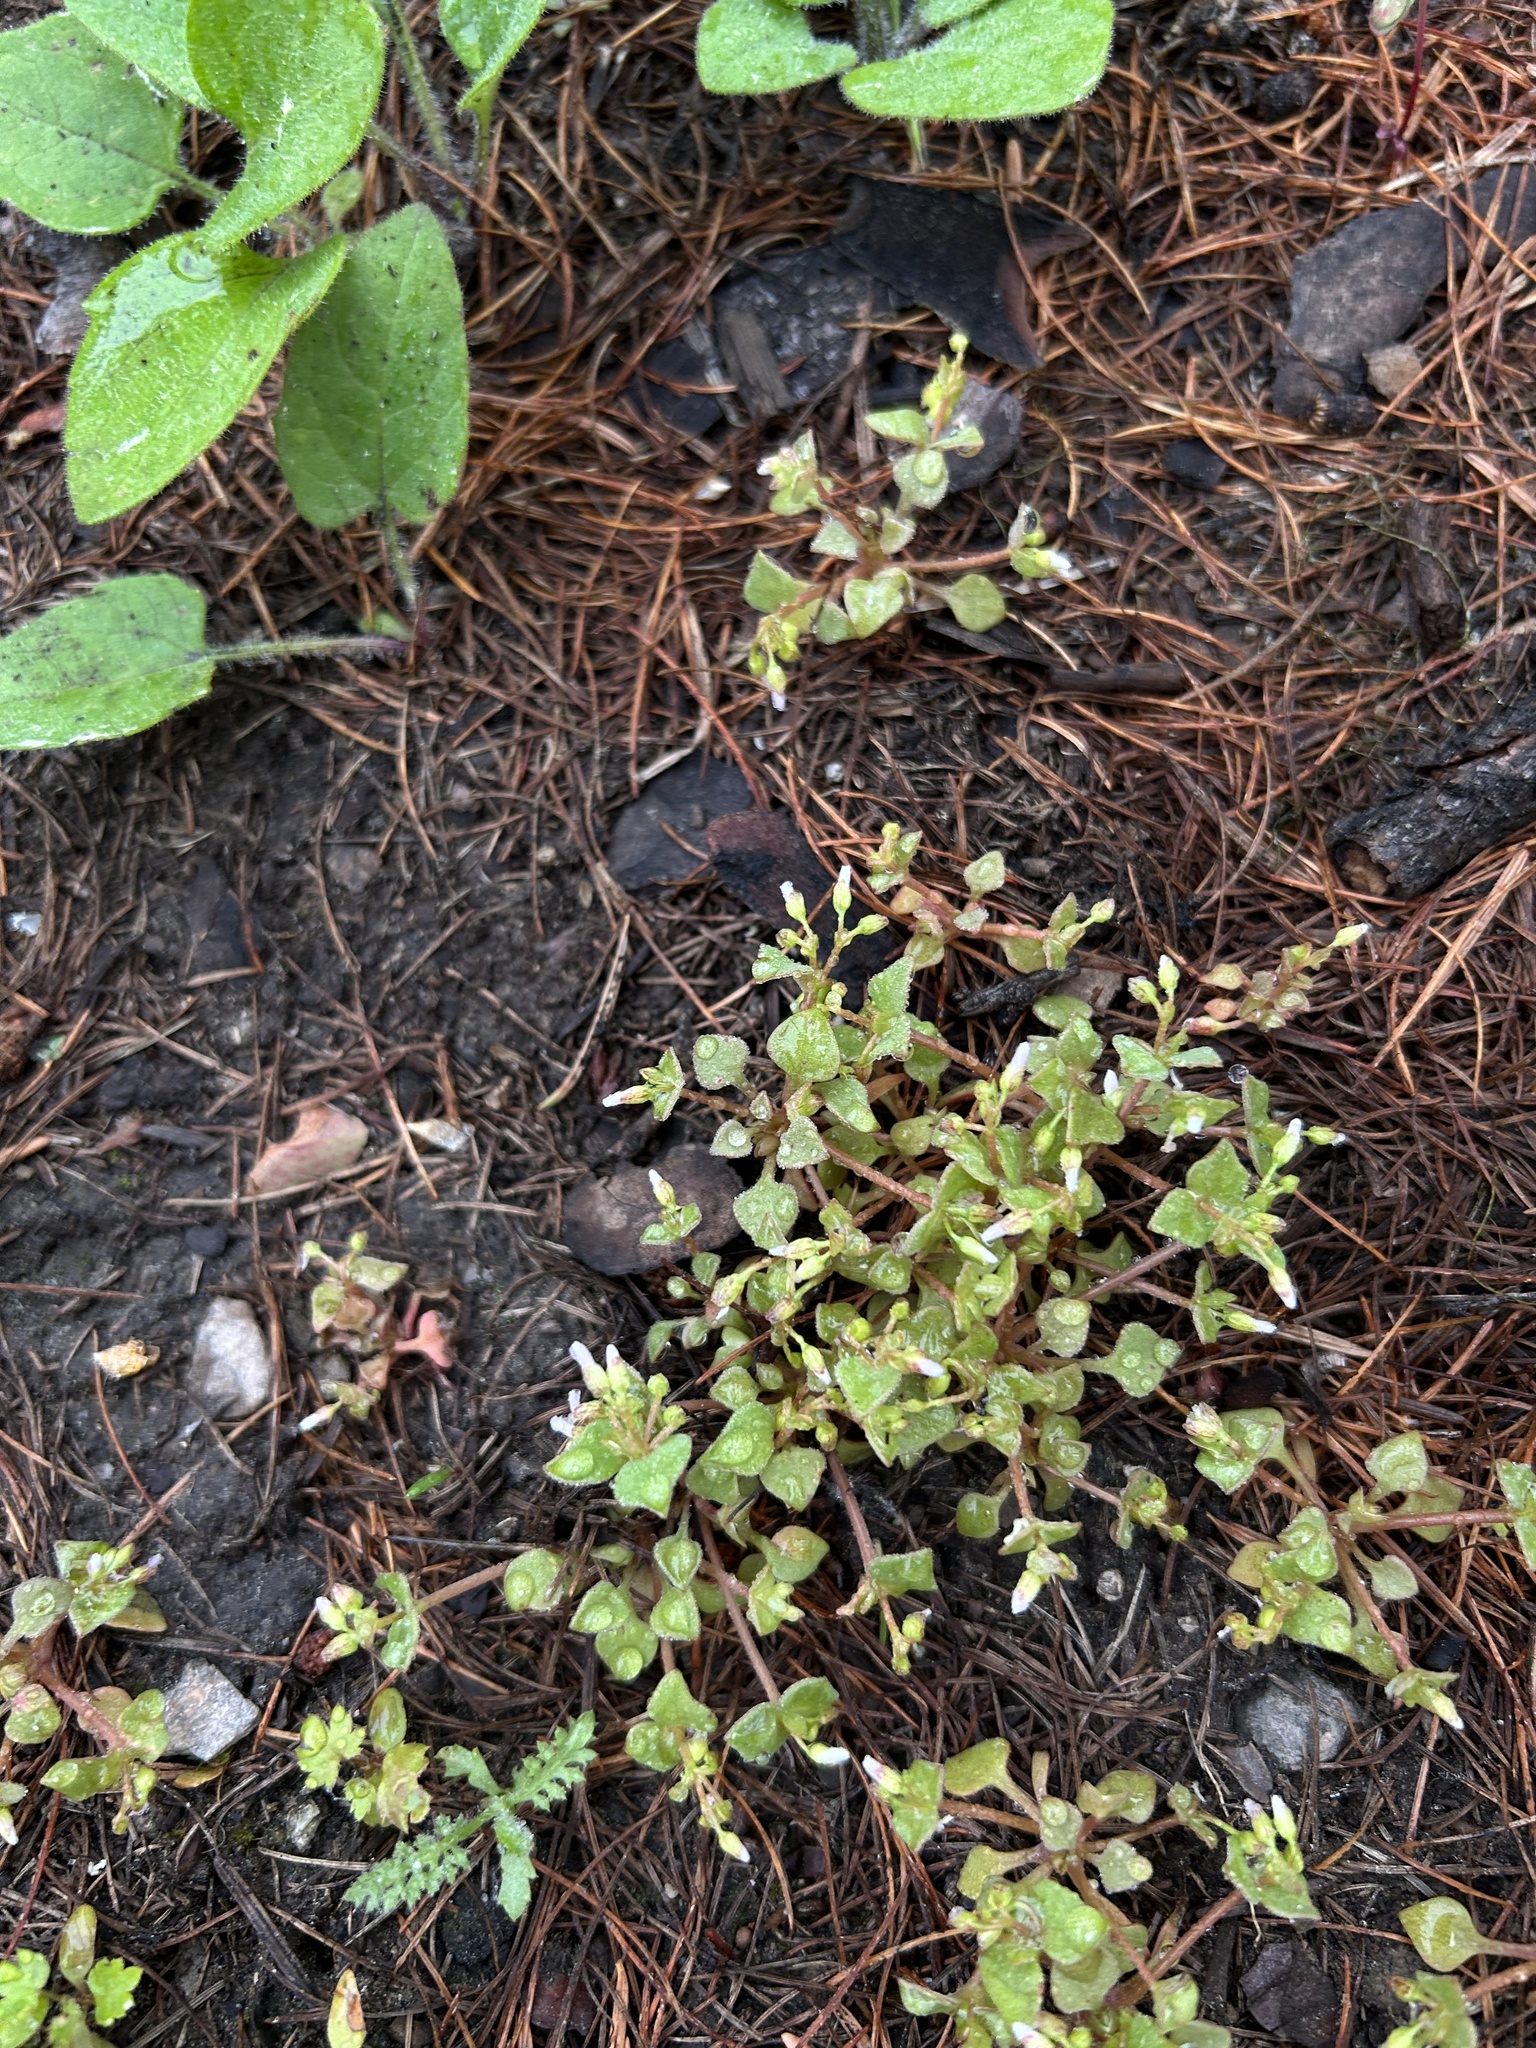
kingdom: Plantae
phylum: Tracheophyta
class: Magnoliopsida
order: Caryophyllales
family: Montiaceae
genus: Claytonia
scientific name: Claytonia rubra
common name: Erubescent miner's-lettuce
